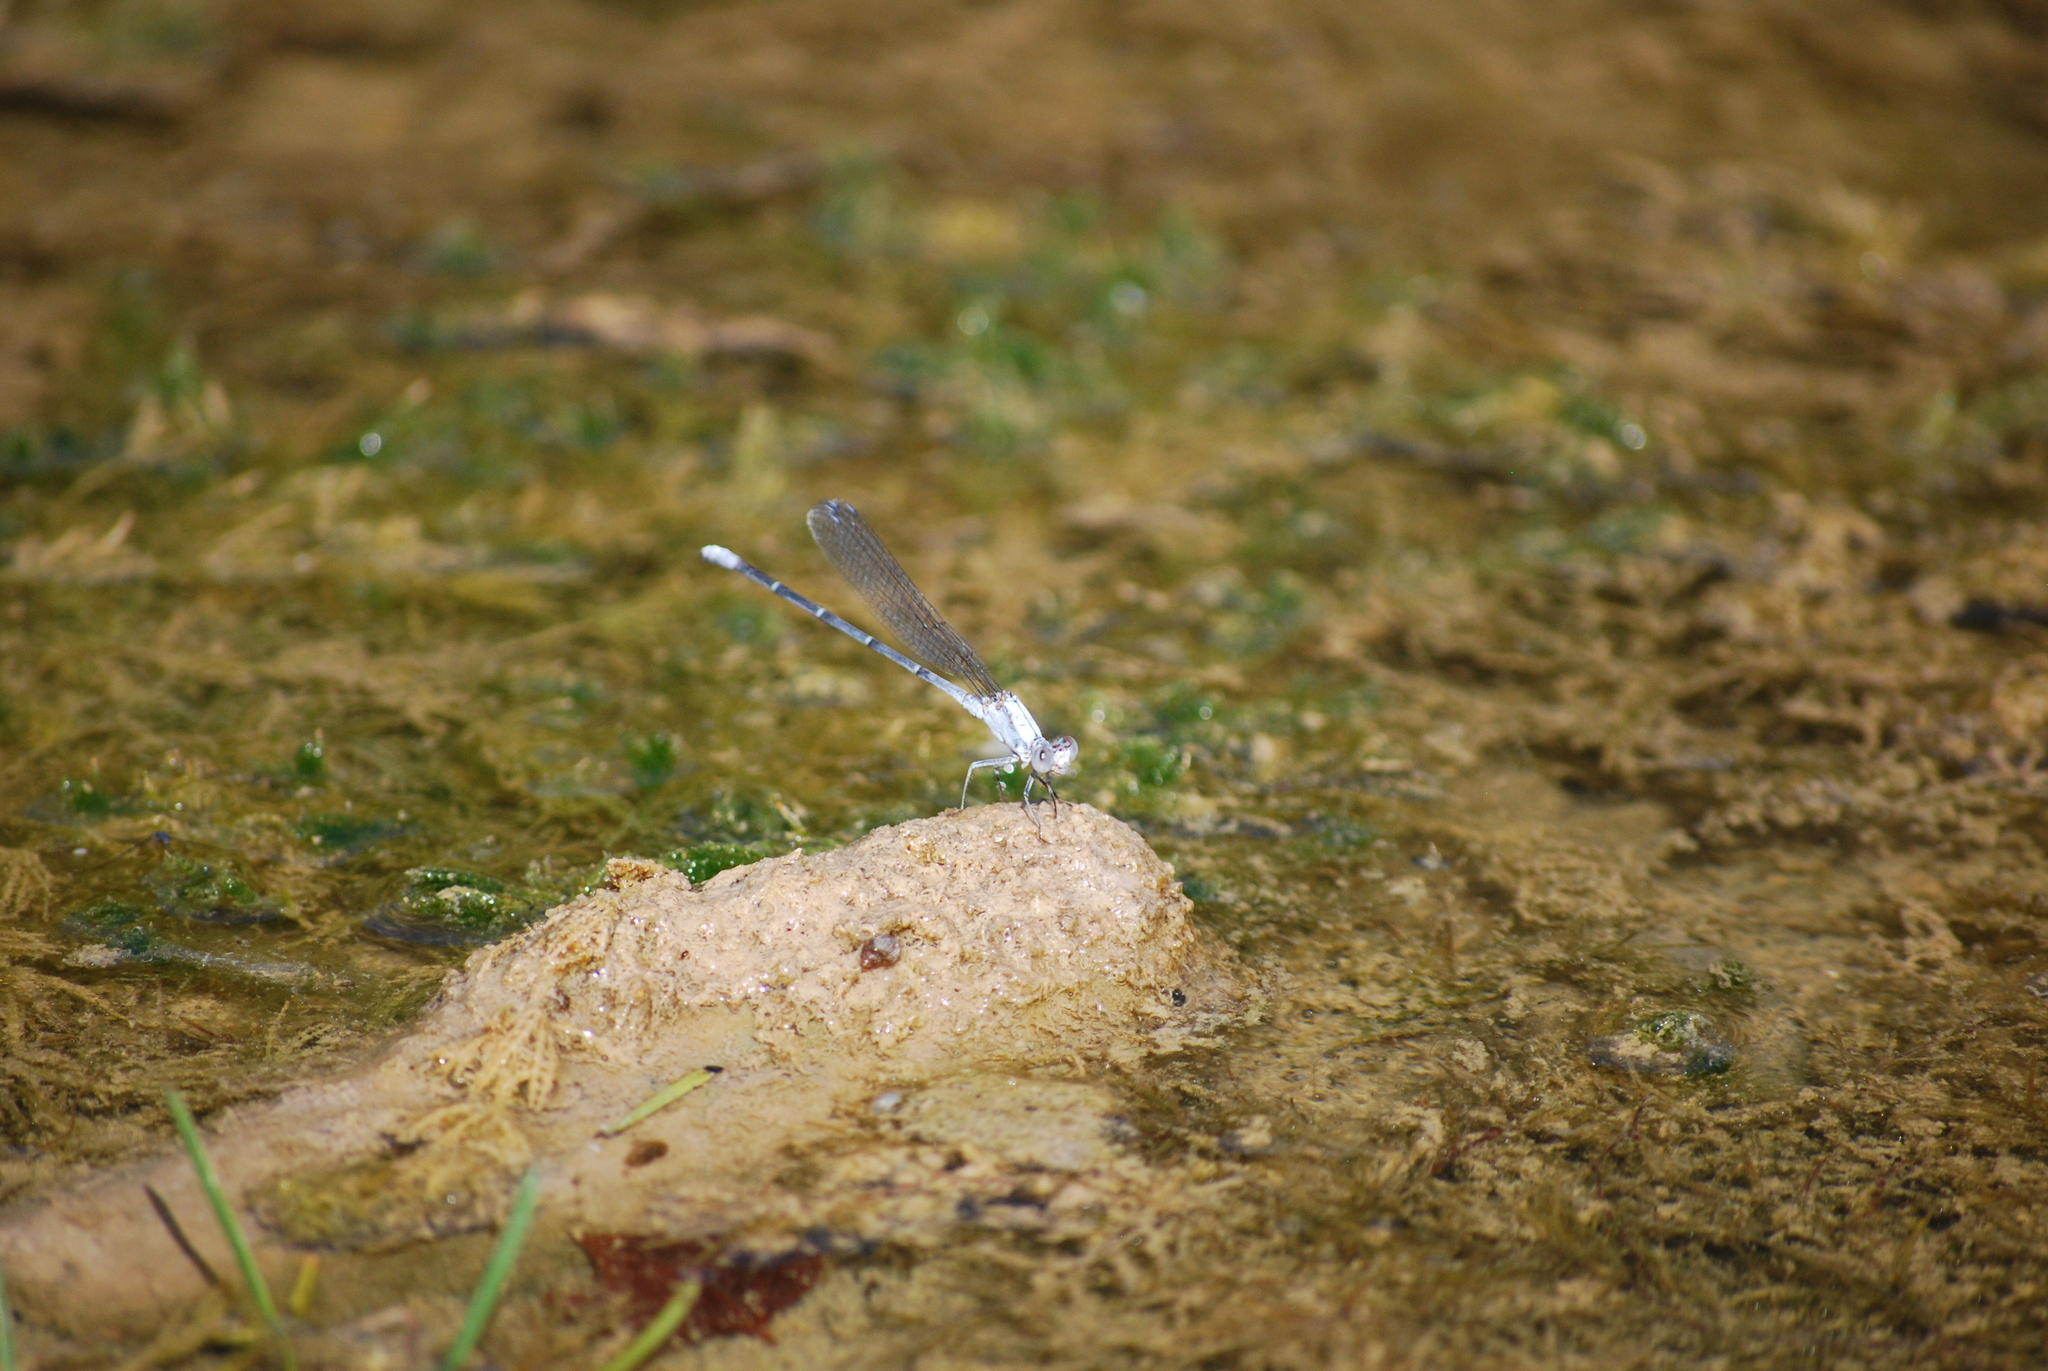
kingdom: Animalia
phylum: Arthropoda
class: Insecta
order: Odonata
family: Coenagrionidae
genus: Argia
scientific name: Argia moesta
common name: Powdered dancer
